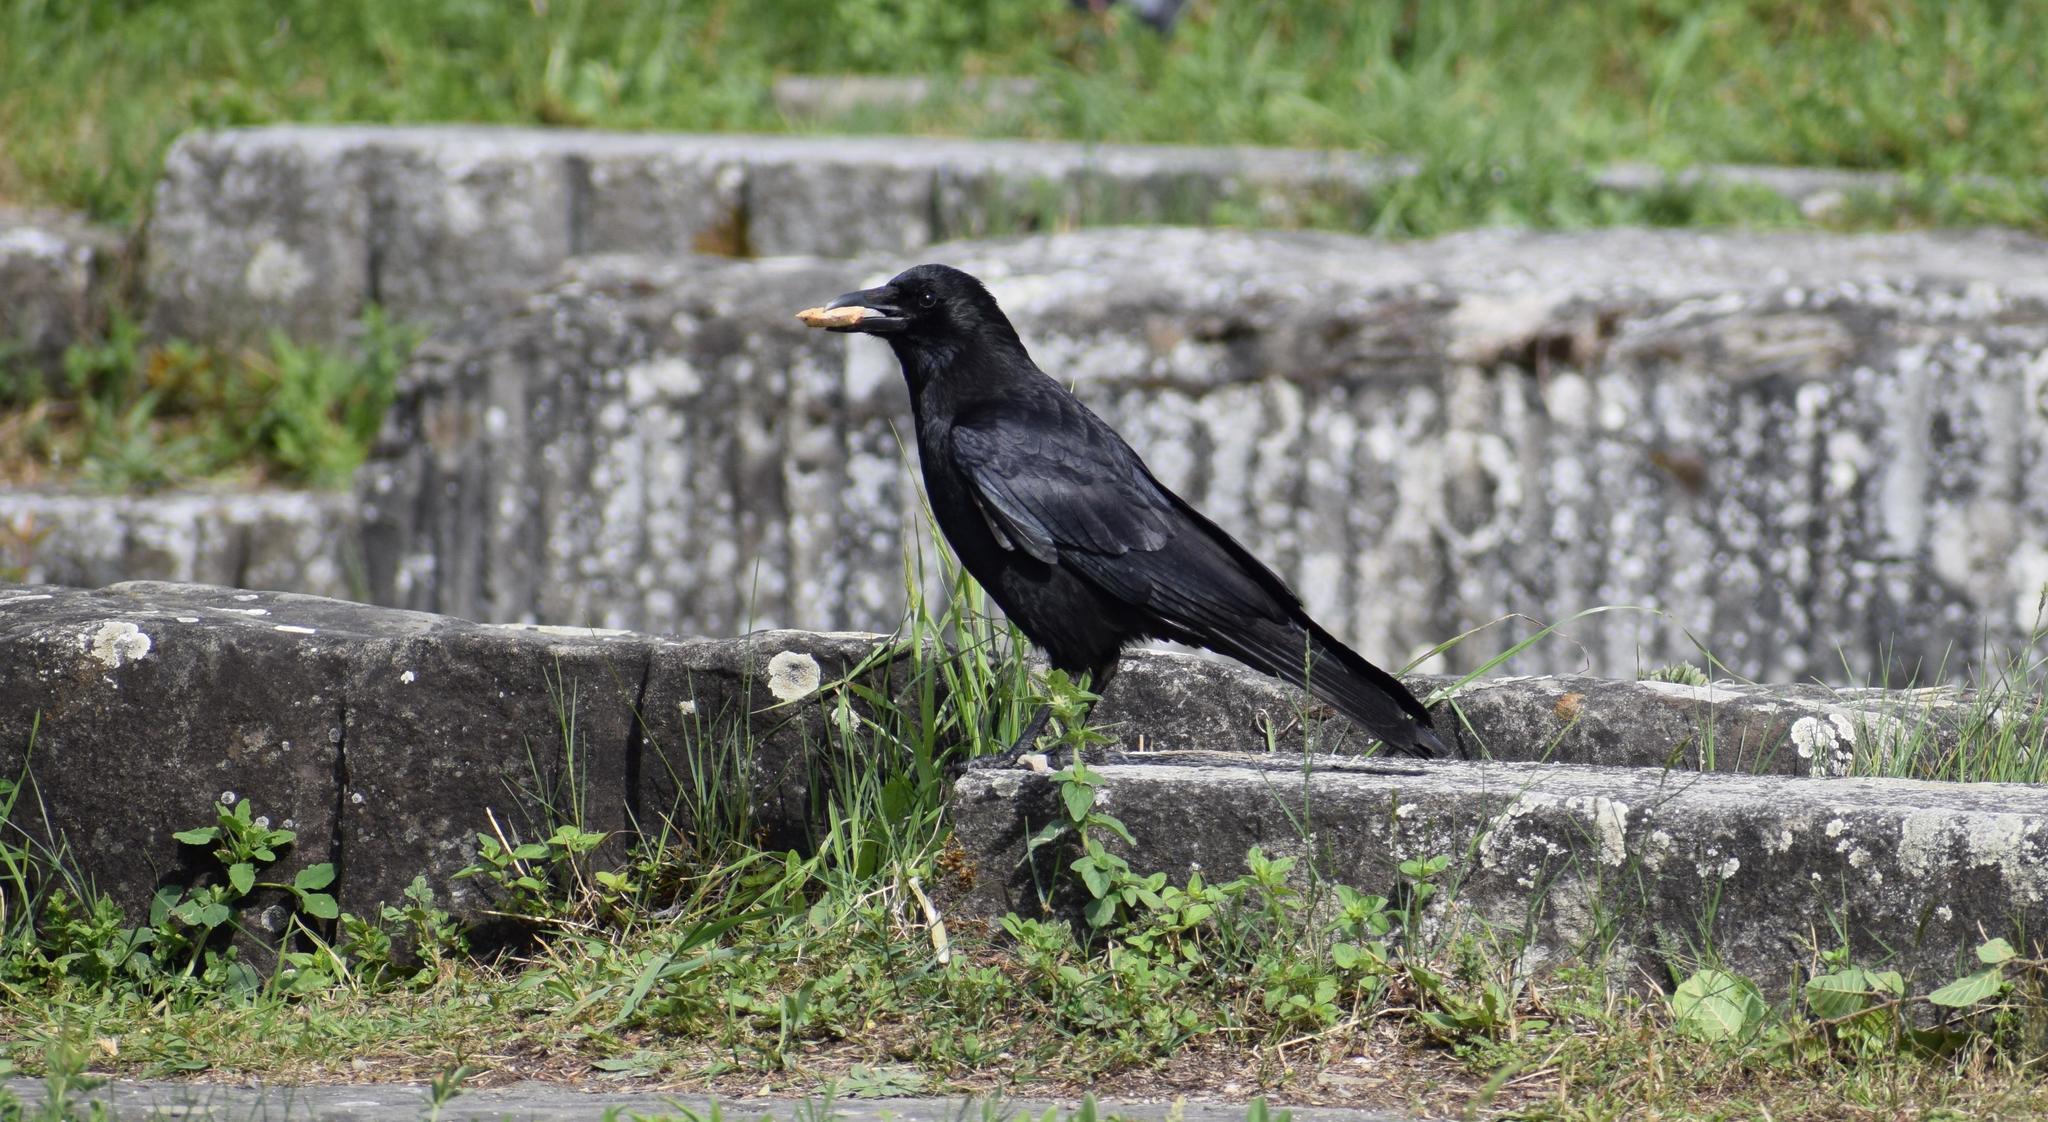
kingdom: Animalia
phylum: Chordata
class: Aves
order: Passeriformes
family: Corvidae
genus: Corvus
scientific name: Corvus corone
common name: Carrion crow
